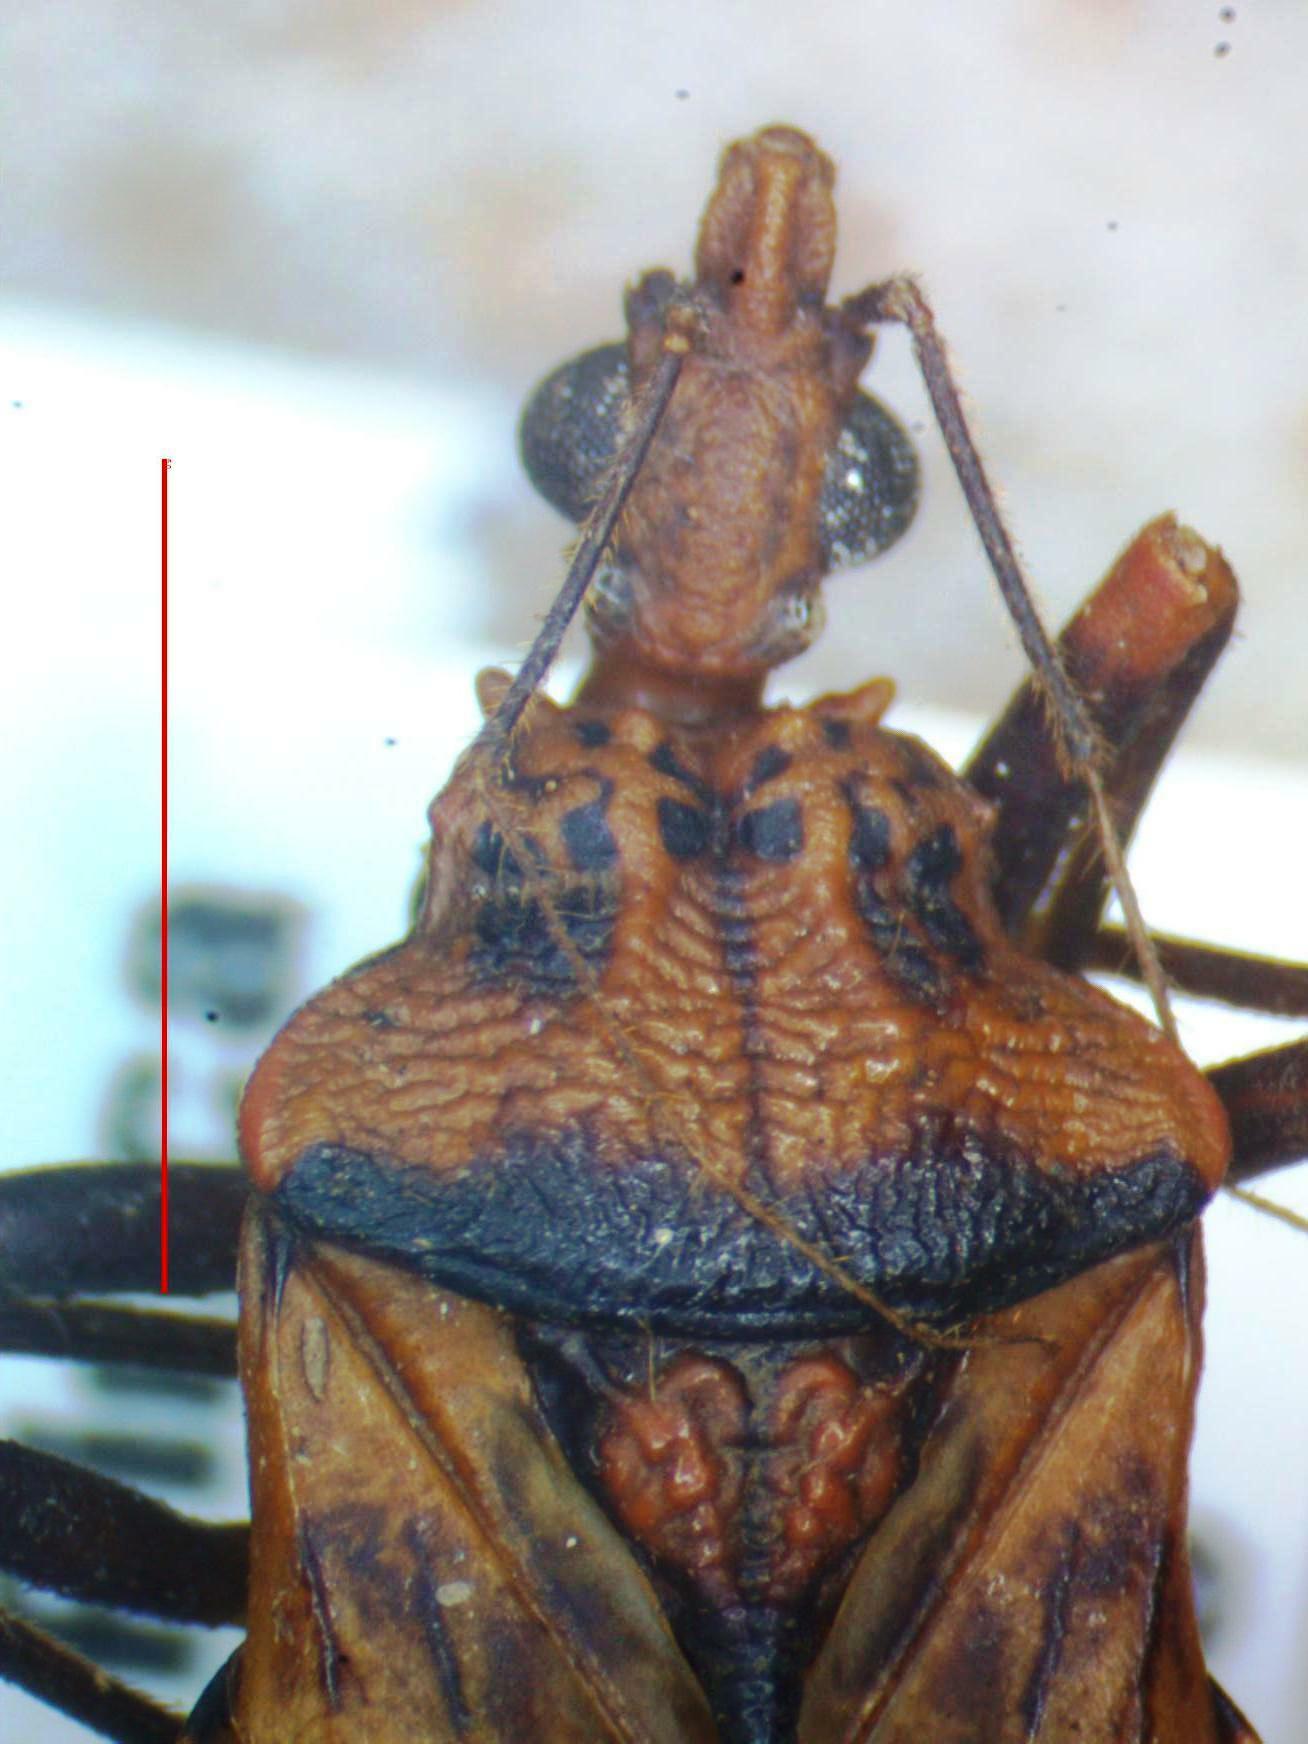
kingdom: Animalia
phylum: Arthropoda
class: Insecta
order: Hemiptera
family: Reduviidae
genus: Panstrongylus
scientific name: Panstrongylus geniculatus
